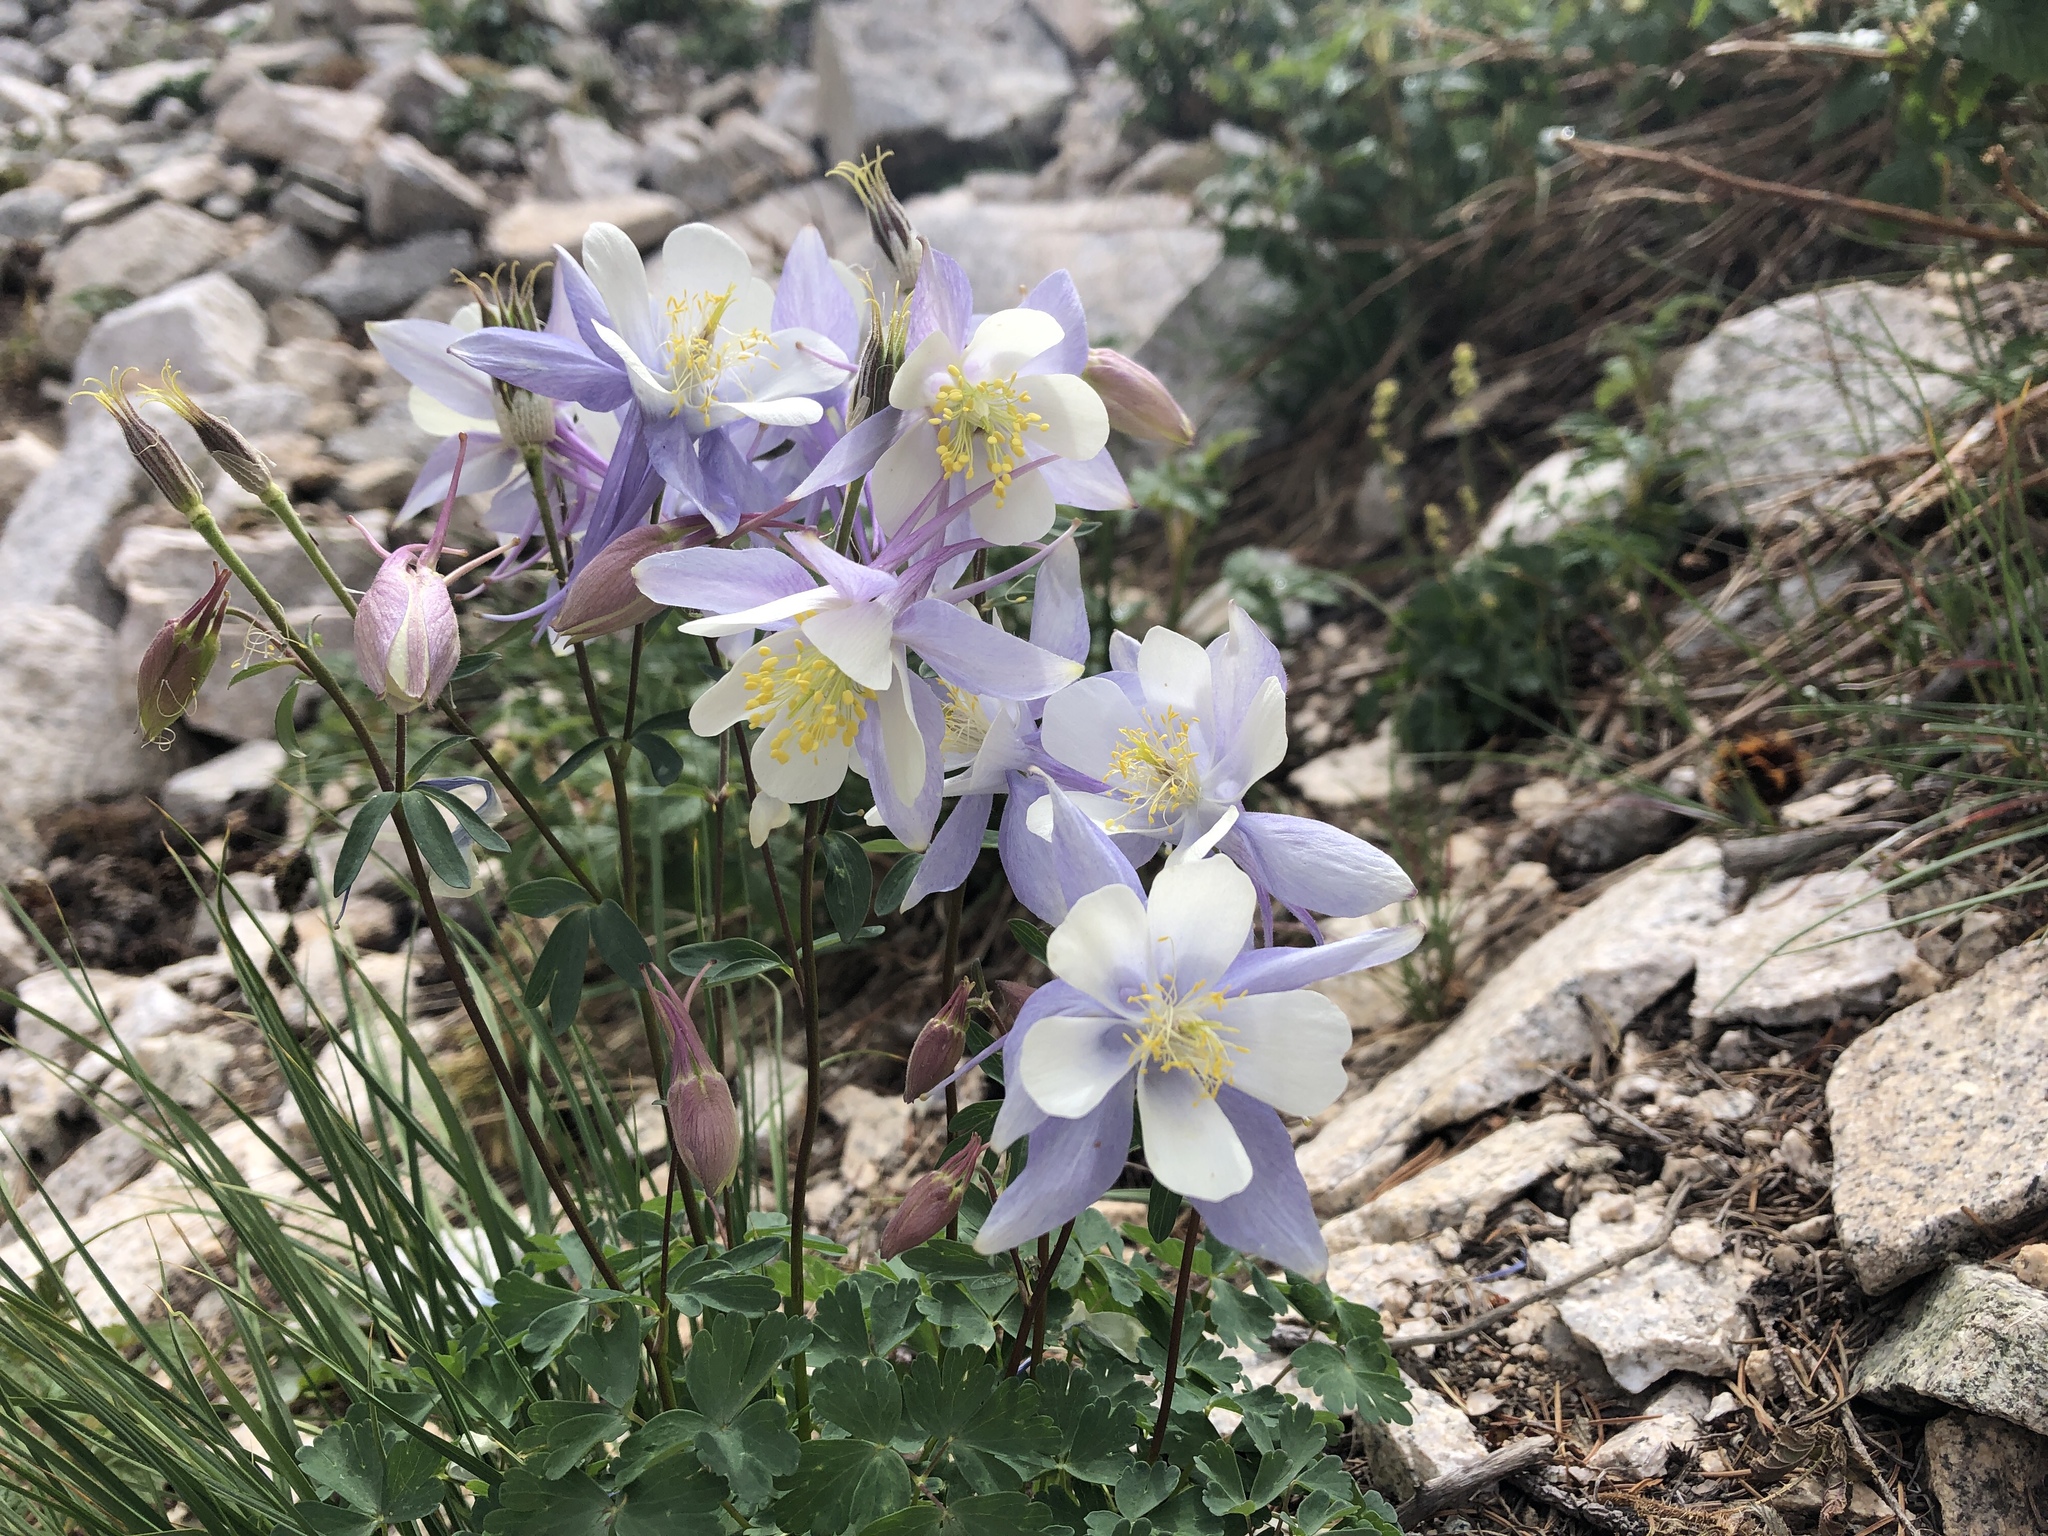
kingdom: Plantae
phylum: Tracheophyta
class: Magnoliopsida
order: Ranunculales
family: Ranunculaceae
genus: Aquilegia
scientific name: Aquilegia coerulea
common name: Rocky mountain columbine
